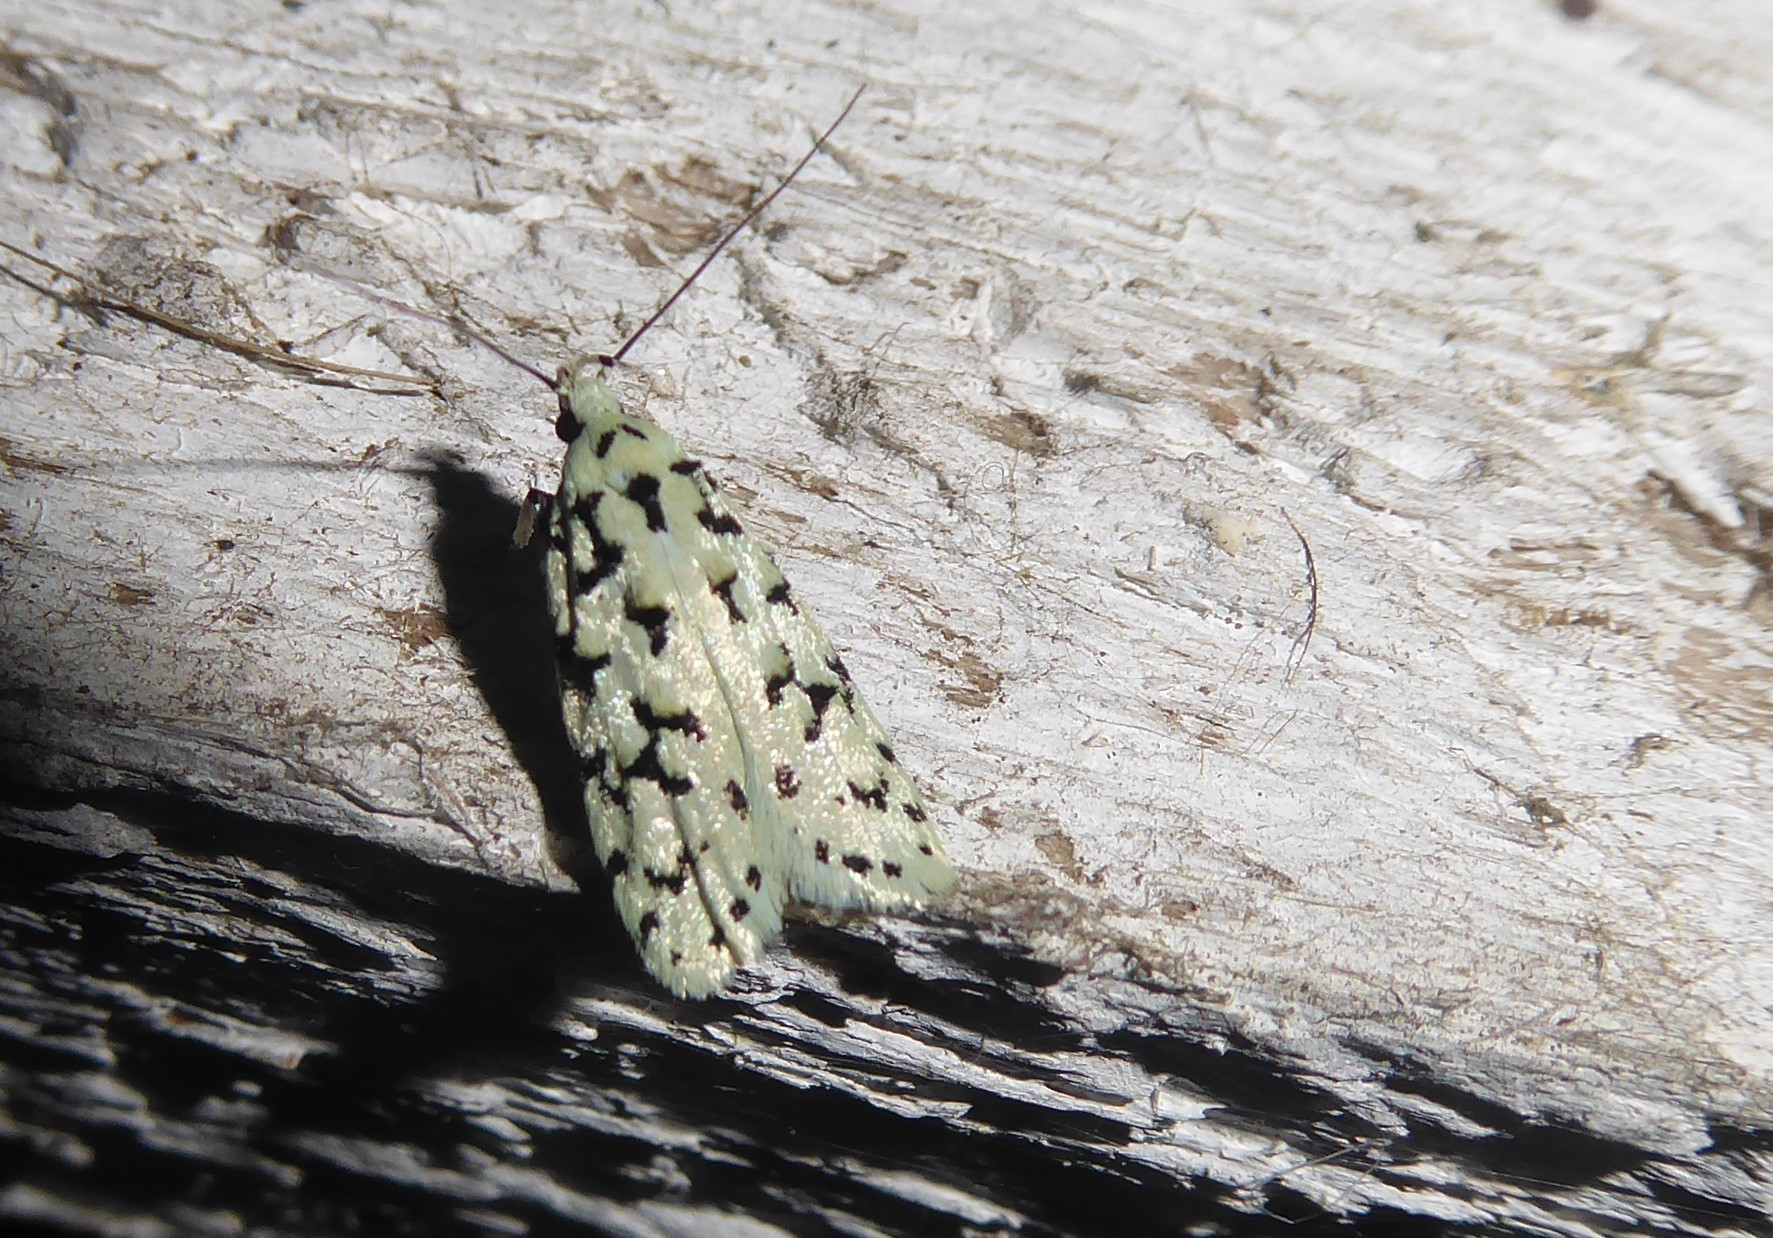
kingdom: Animalia
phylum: Arthropoda
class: Insecta
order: Lepidoptera
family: Oecophoridae
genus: Izatha
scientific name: Izatha huttoni
